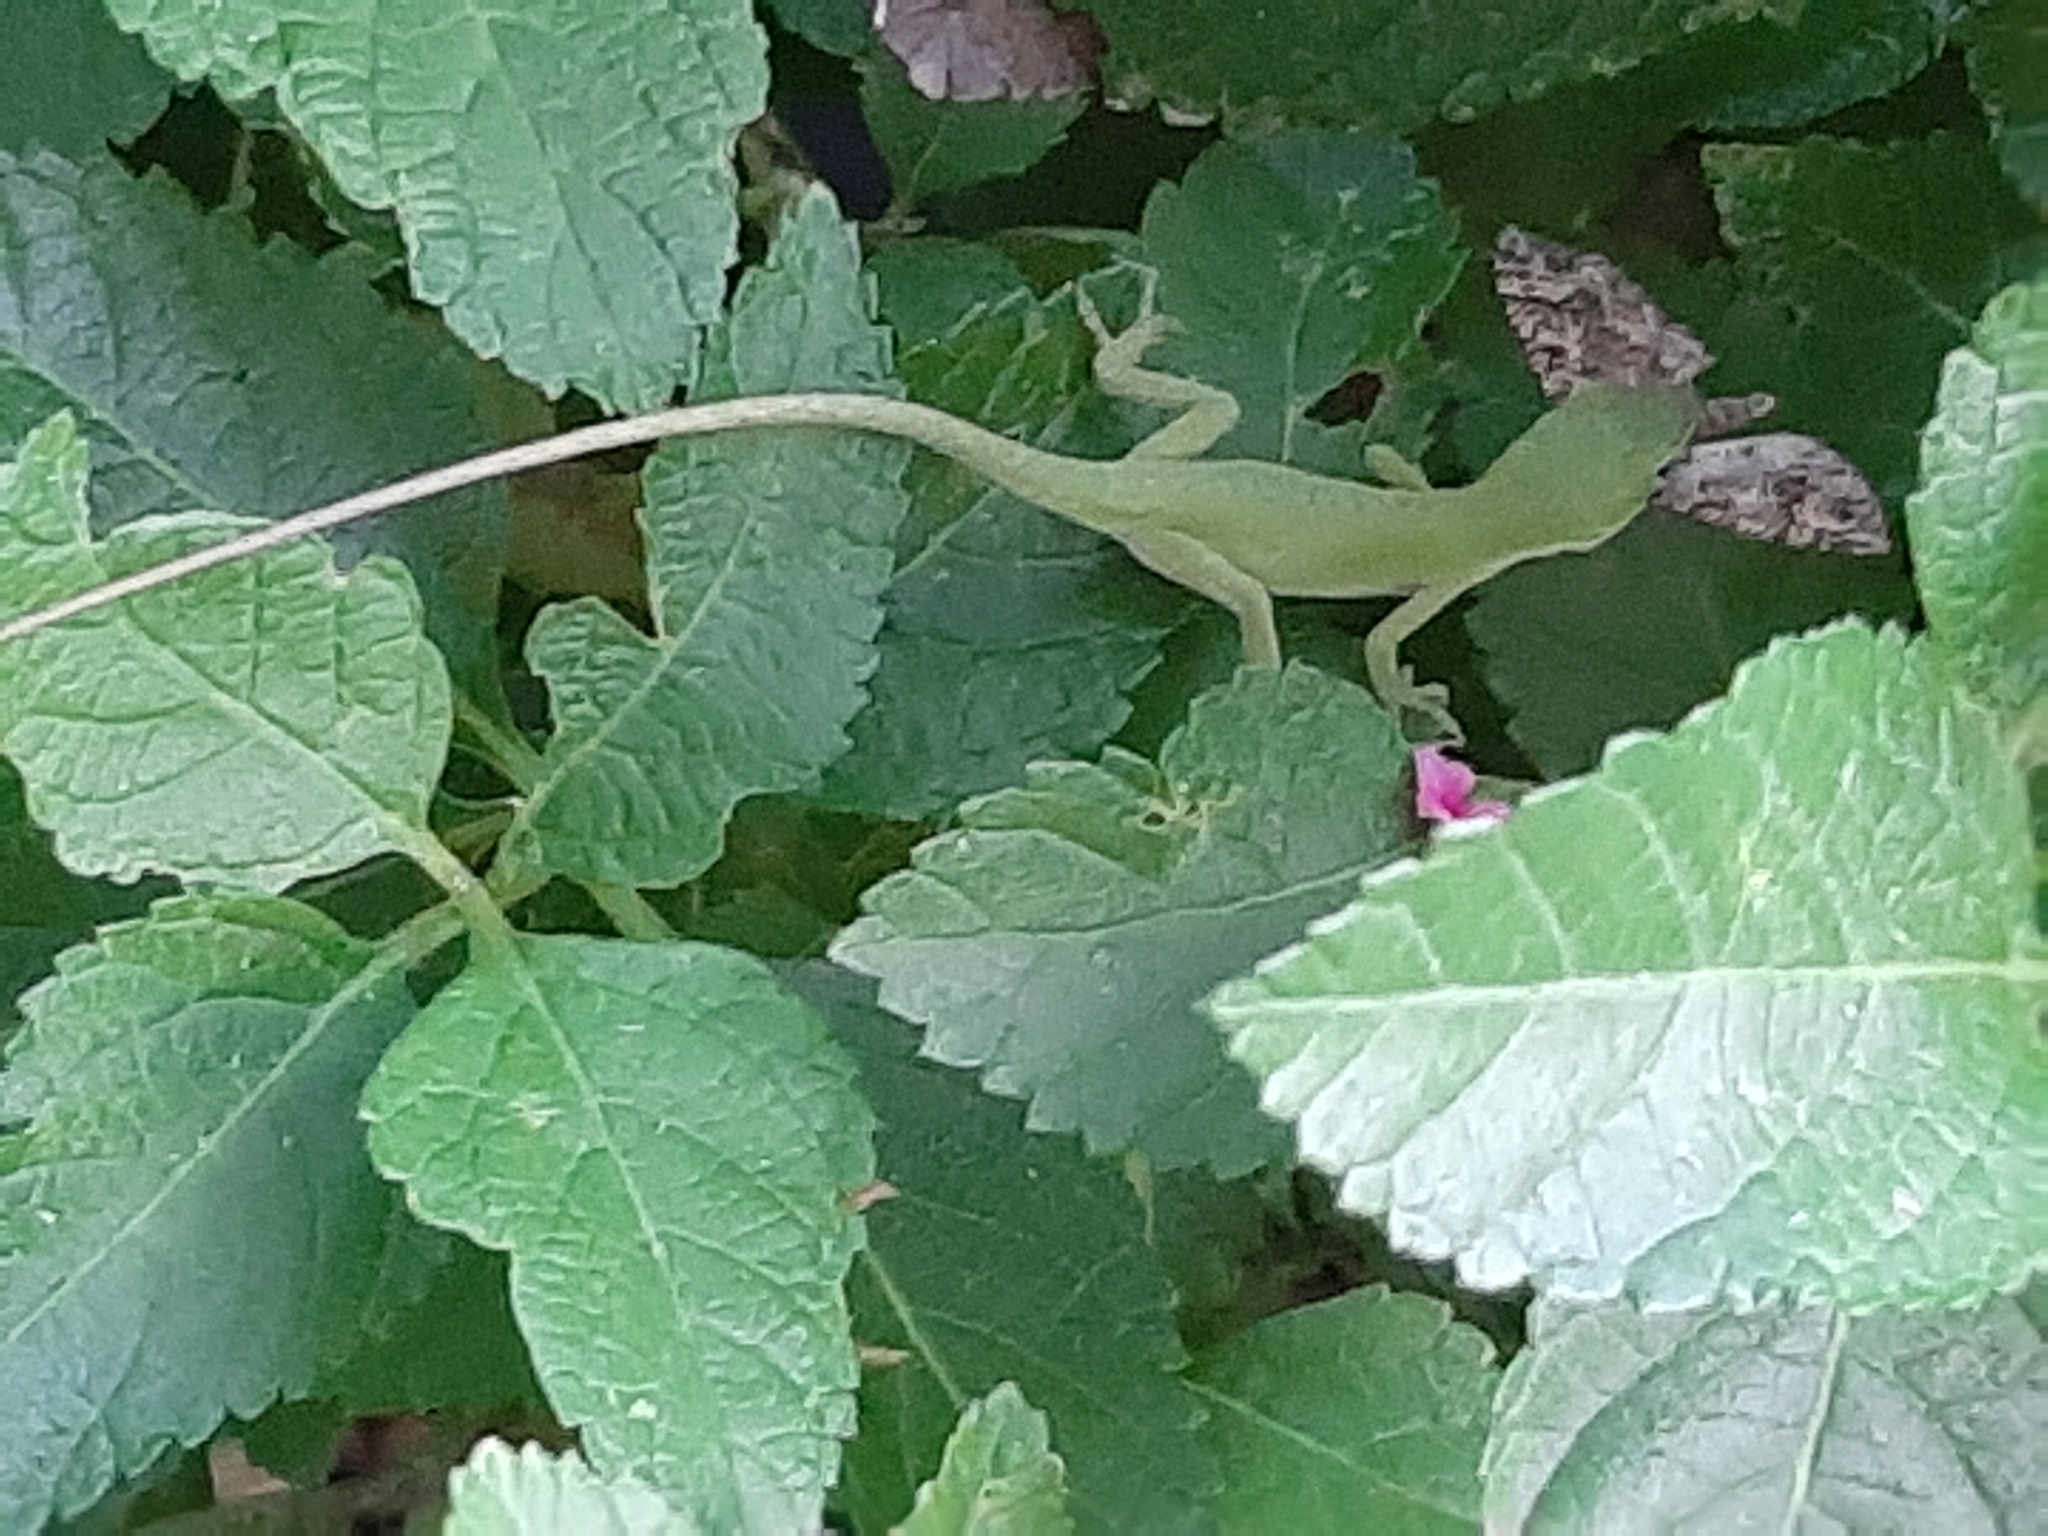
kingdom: Animalia
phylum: Chordata
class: Squamata
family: Dactyloidae
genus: Anolis
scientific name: Anolis carolinensis
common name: Green anole
